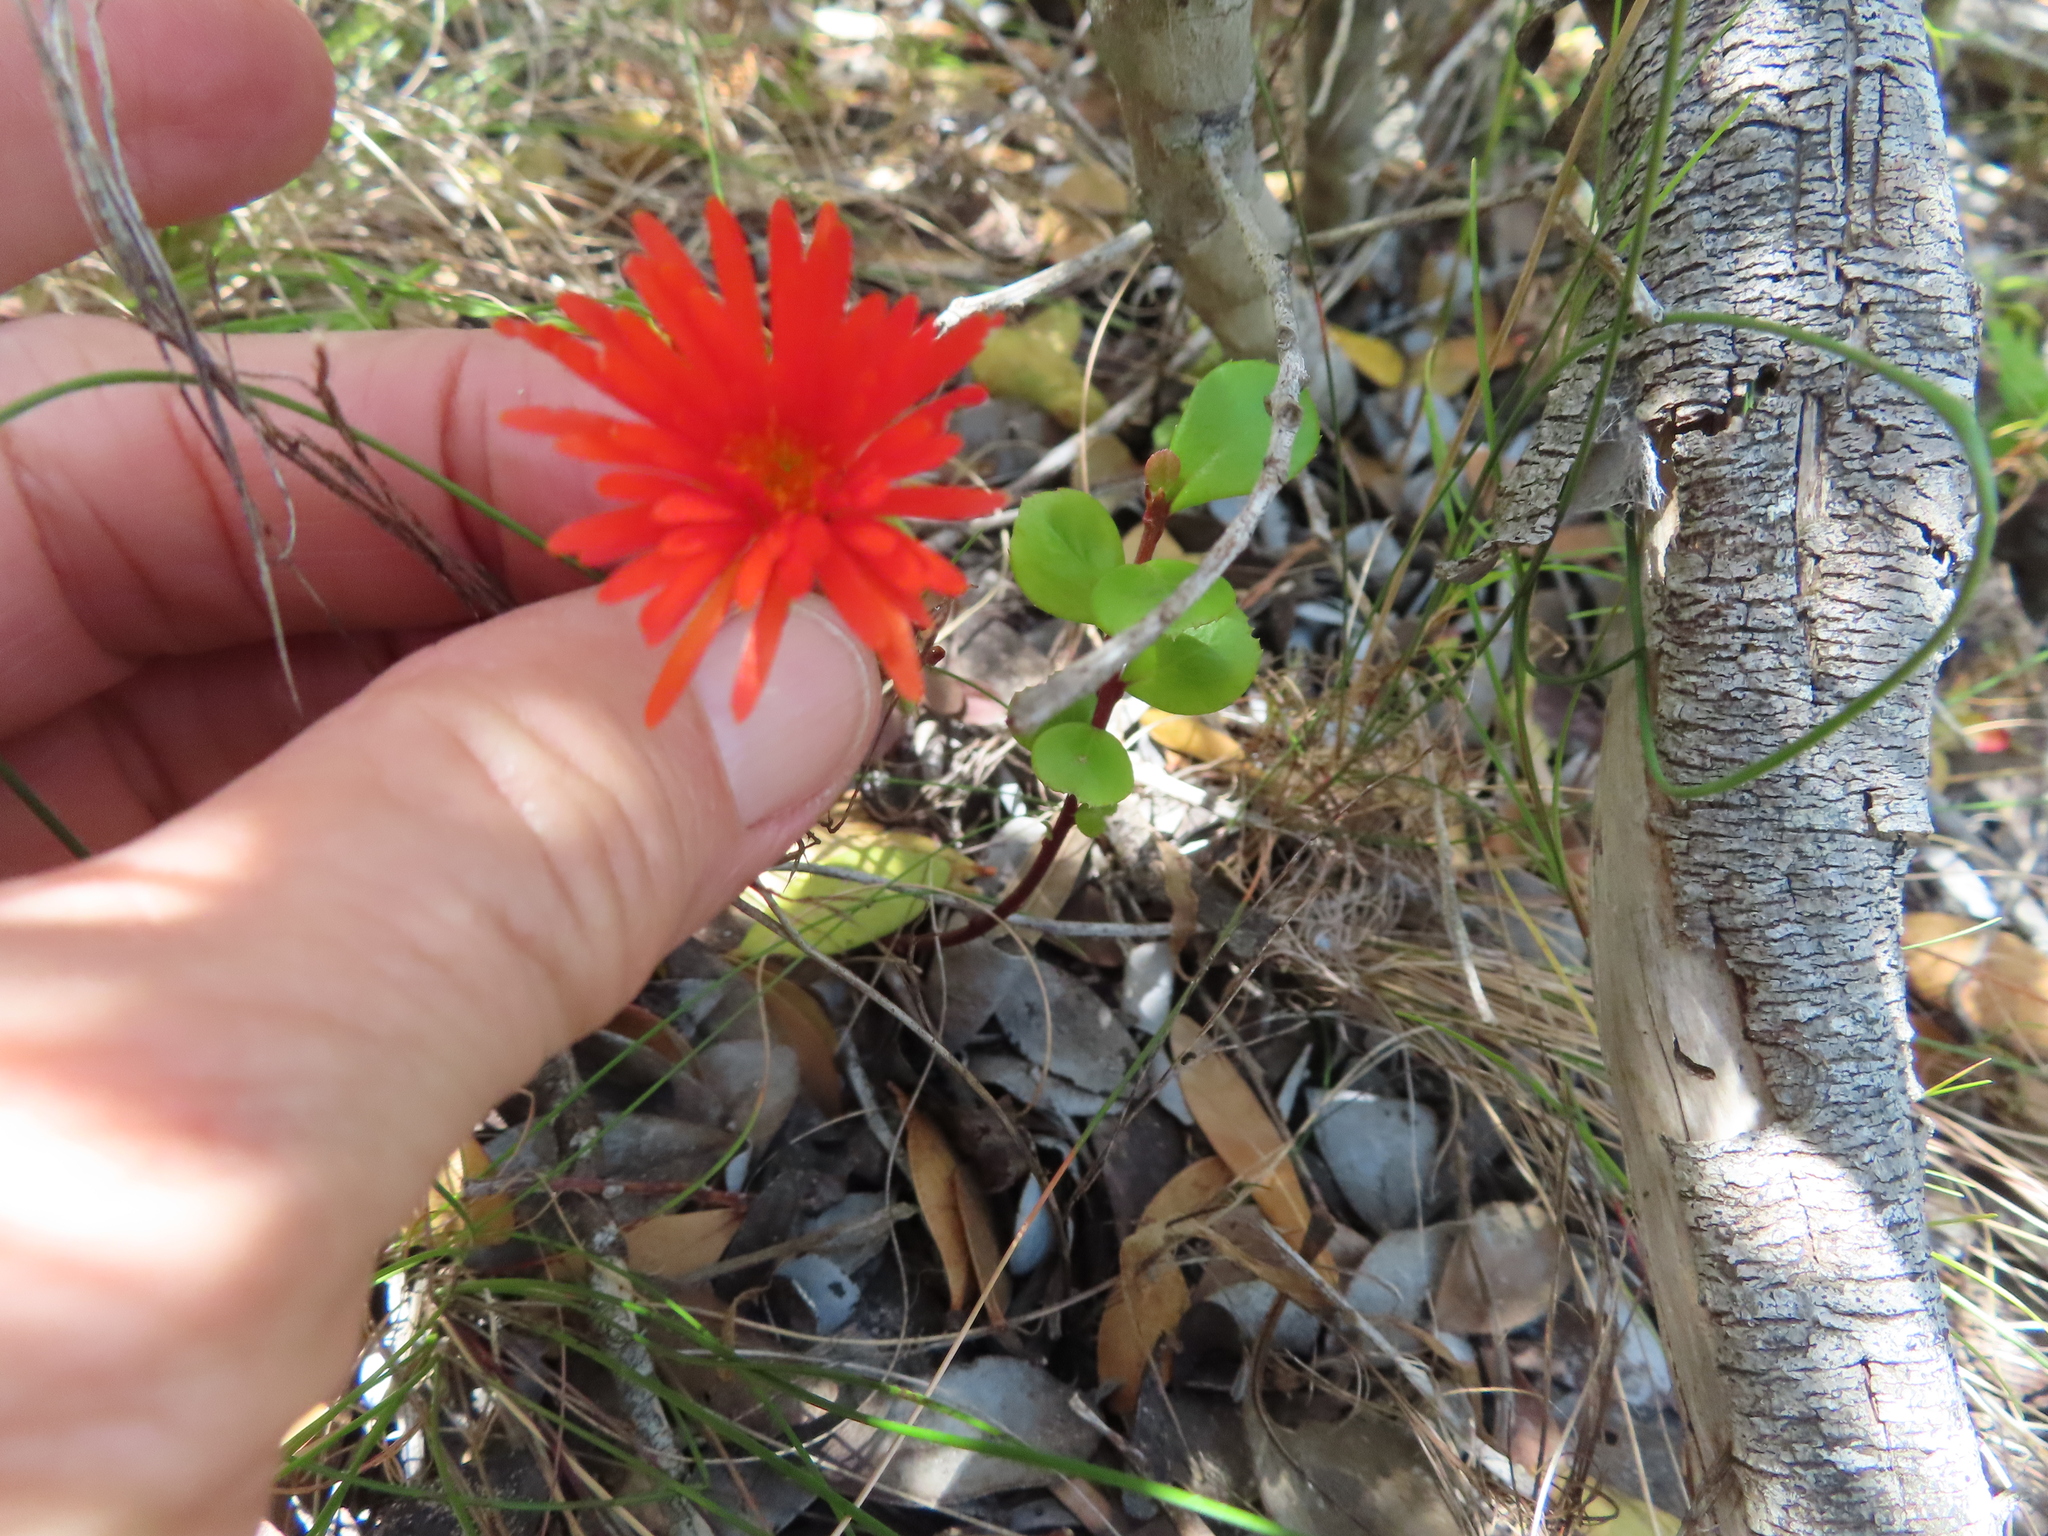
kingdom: Plantae
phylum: Tracheophyta
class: Magnoliopsida
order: Caryophyllales
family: Aizoaceae
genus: Lampranthus
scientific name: Lampranthus fergusoniae
